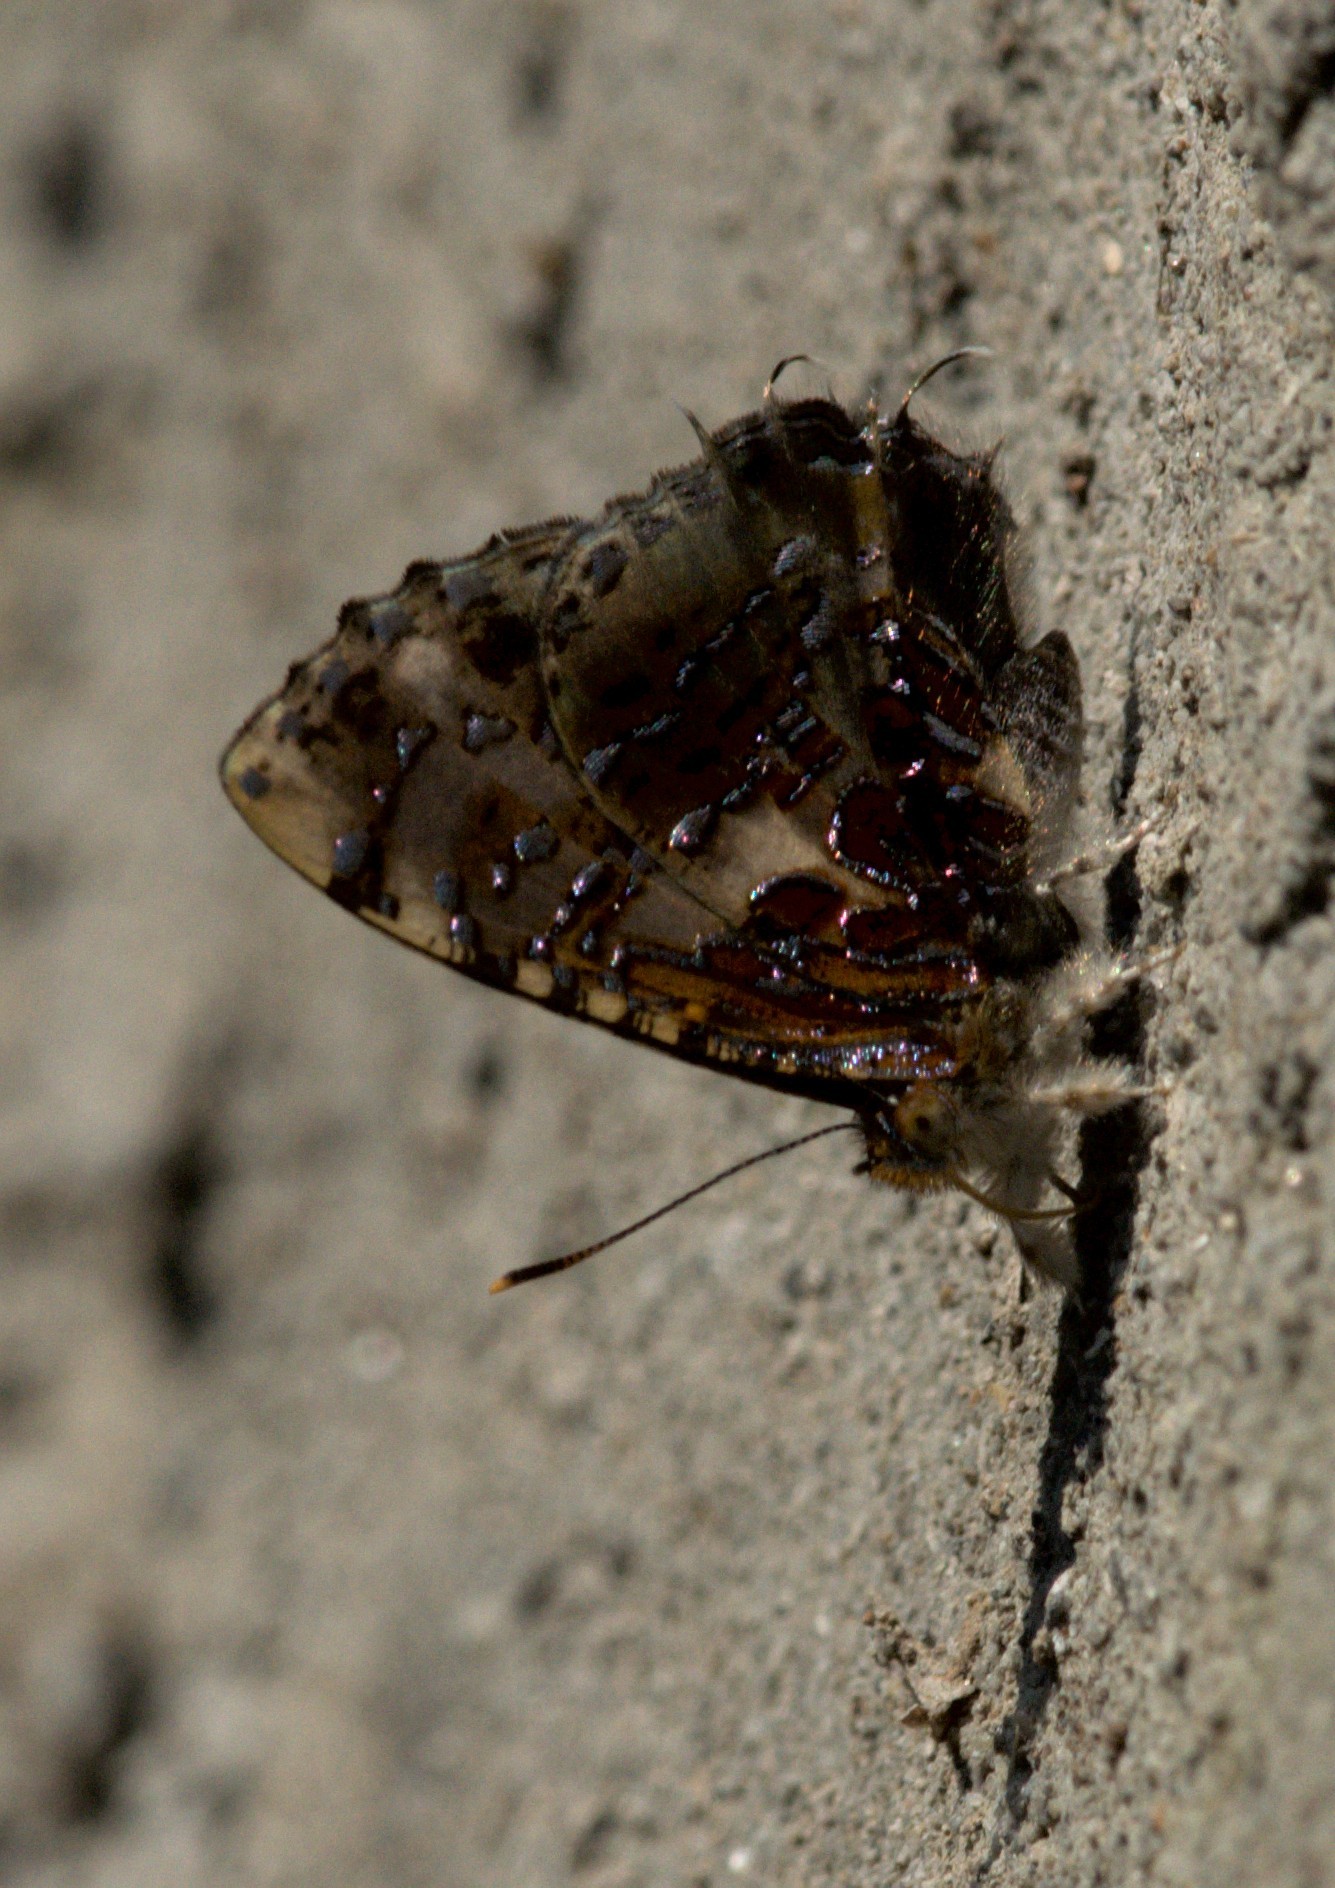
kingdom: Animalia
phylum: Arthropoda
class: Insecta
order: Lepidoptera
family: Lycaenidae
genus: Catapaecilma
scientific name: Catapaecilma major
